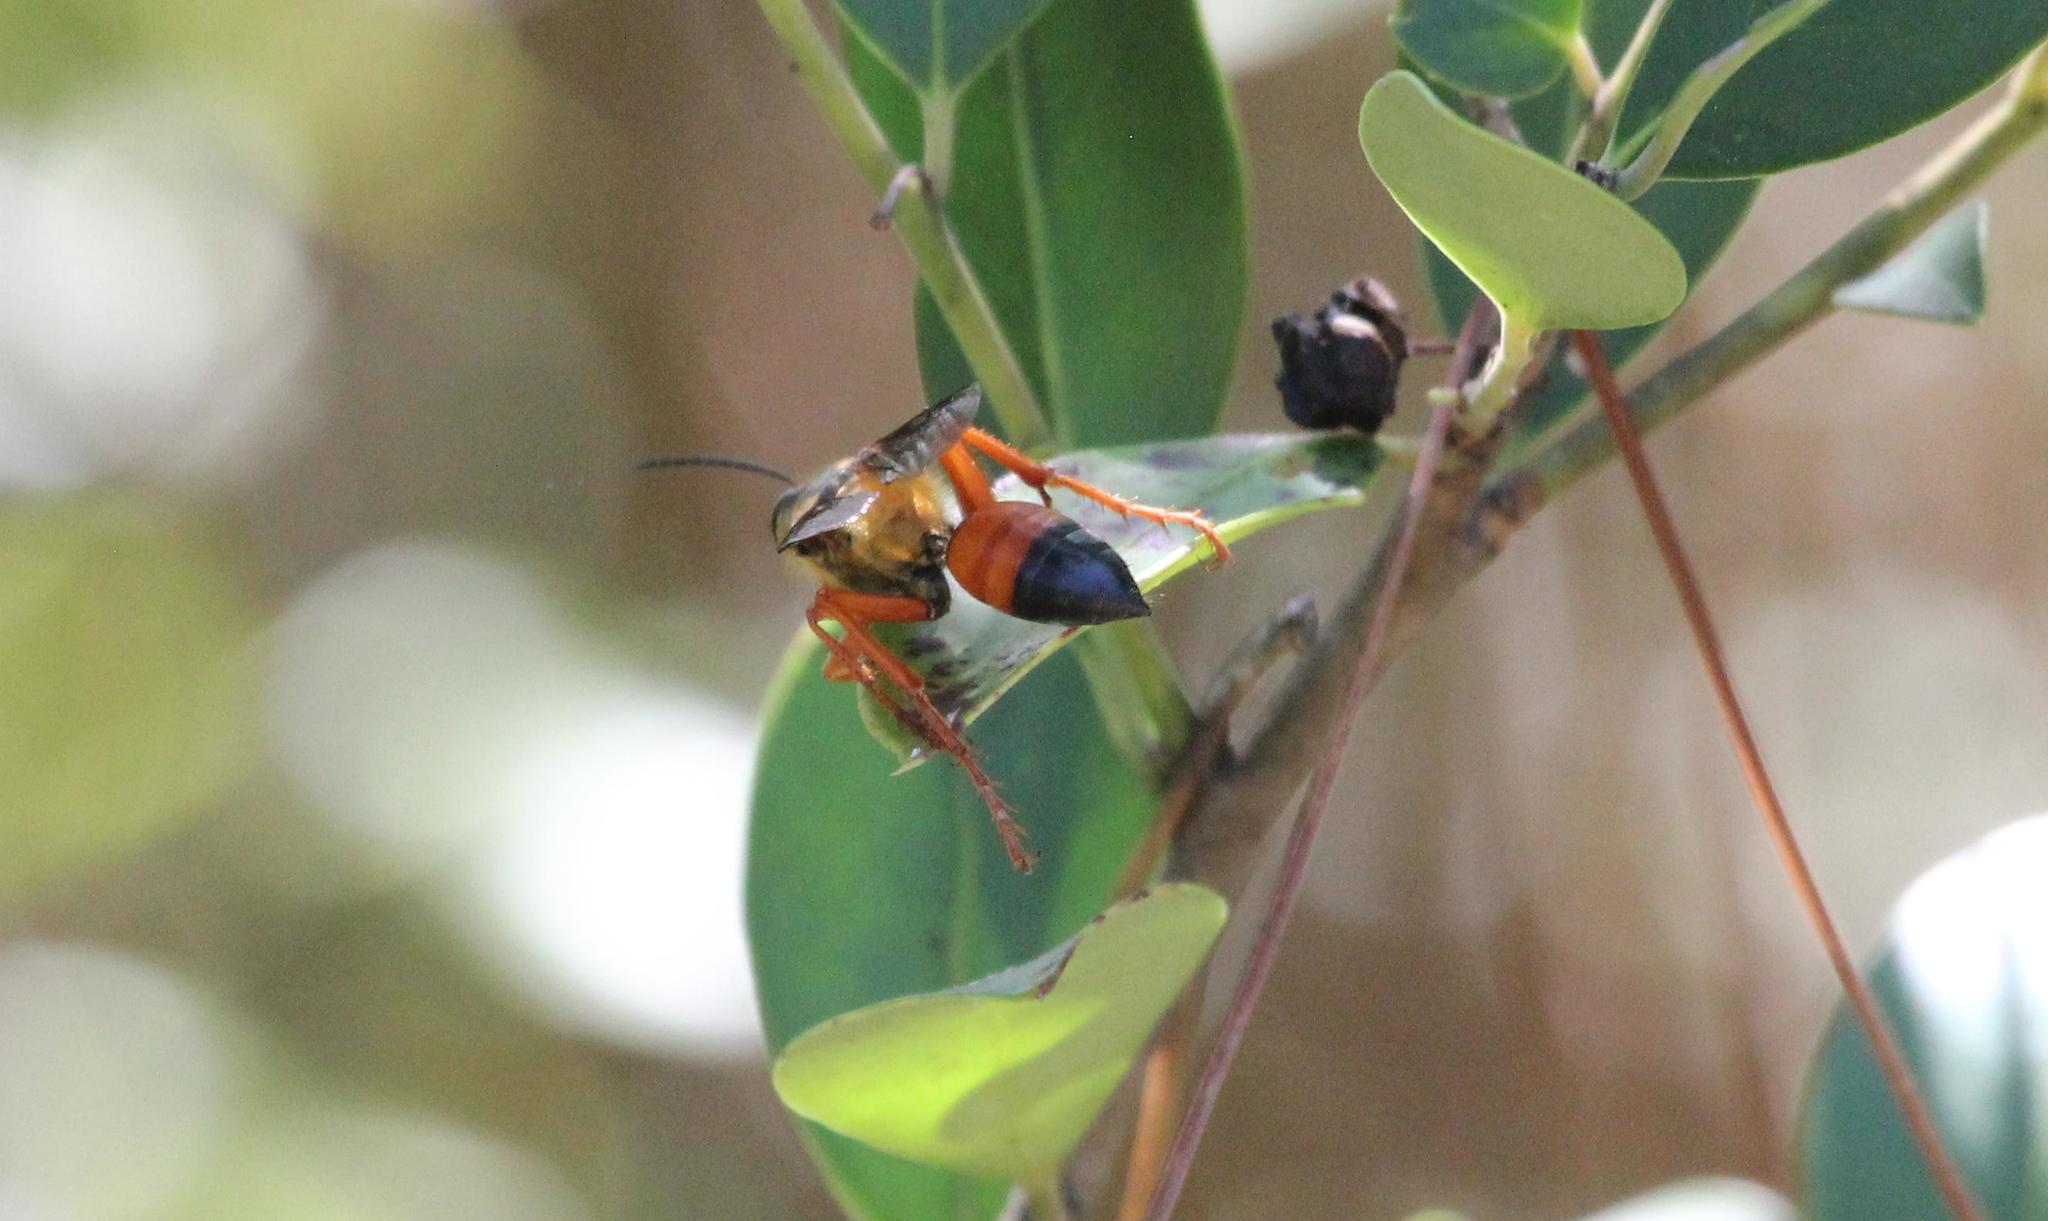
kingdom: Animalia
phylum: Arthropoda
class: Insecta
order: Hymenoptera
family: Sphecidae
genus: Sphex
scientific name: Sphex ichneumoneus
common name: Great golden digger wasp
